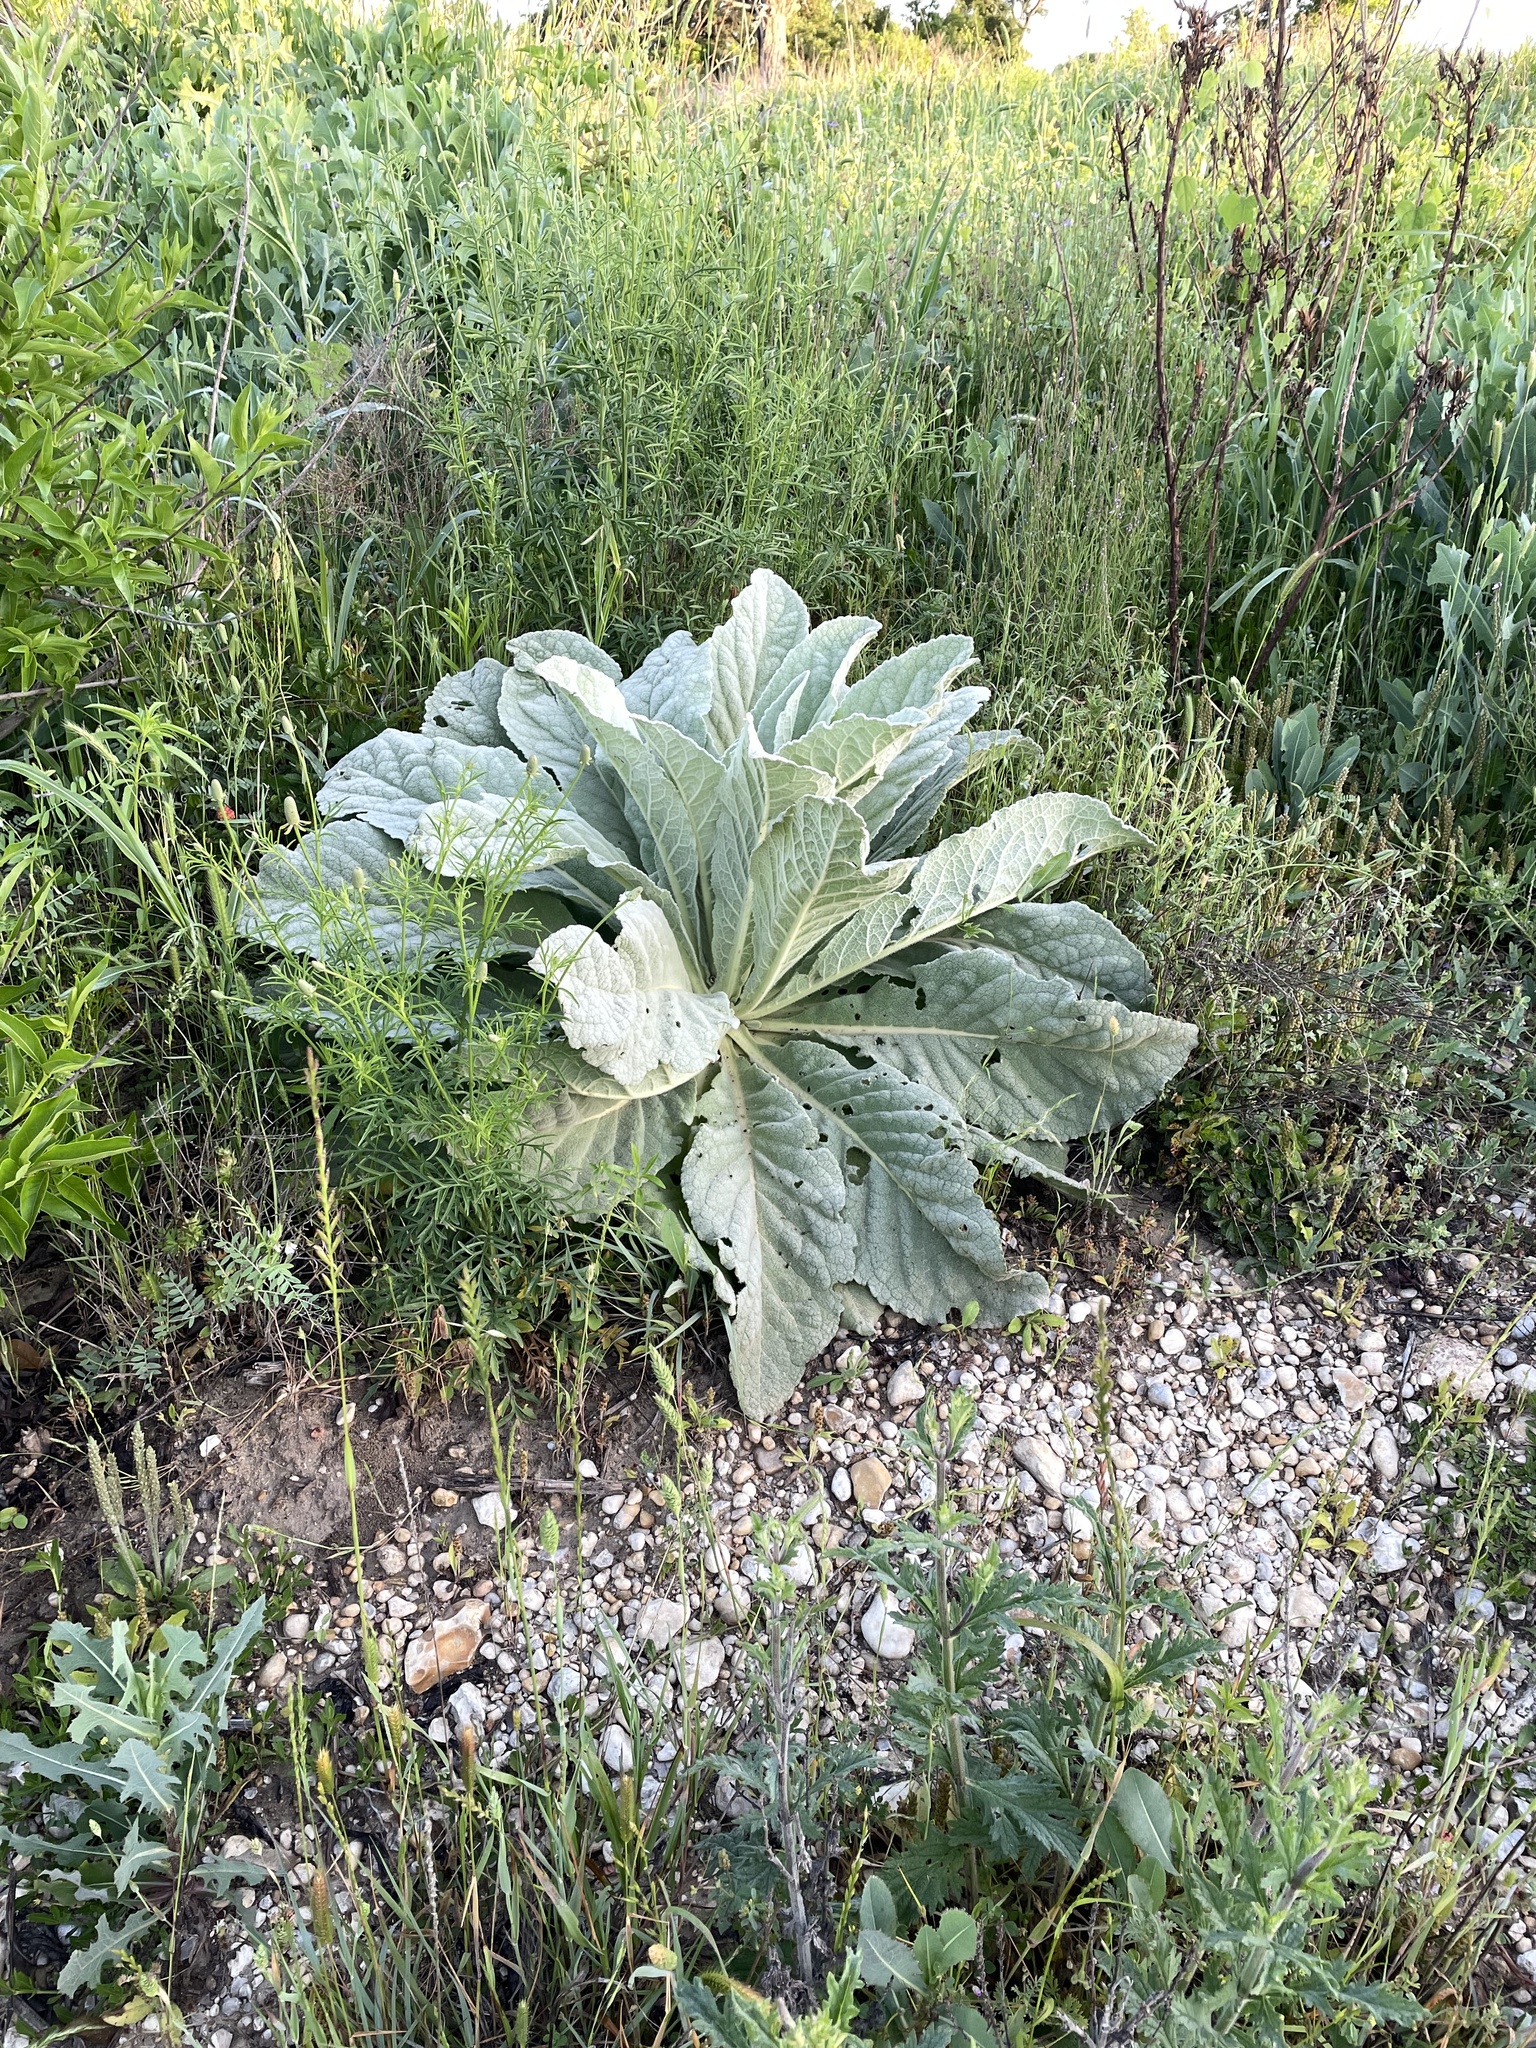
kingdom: Plantae
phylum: Tracheophyta
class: Magnoliopsida
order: Lamiales
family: Scrophulariaceae
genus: Verbascum
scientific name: Verbascum thapsus
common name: Common mullein
